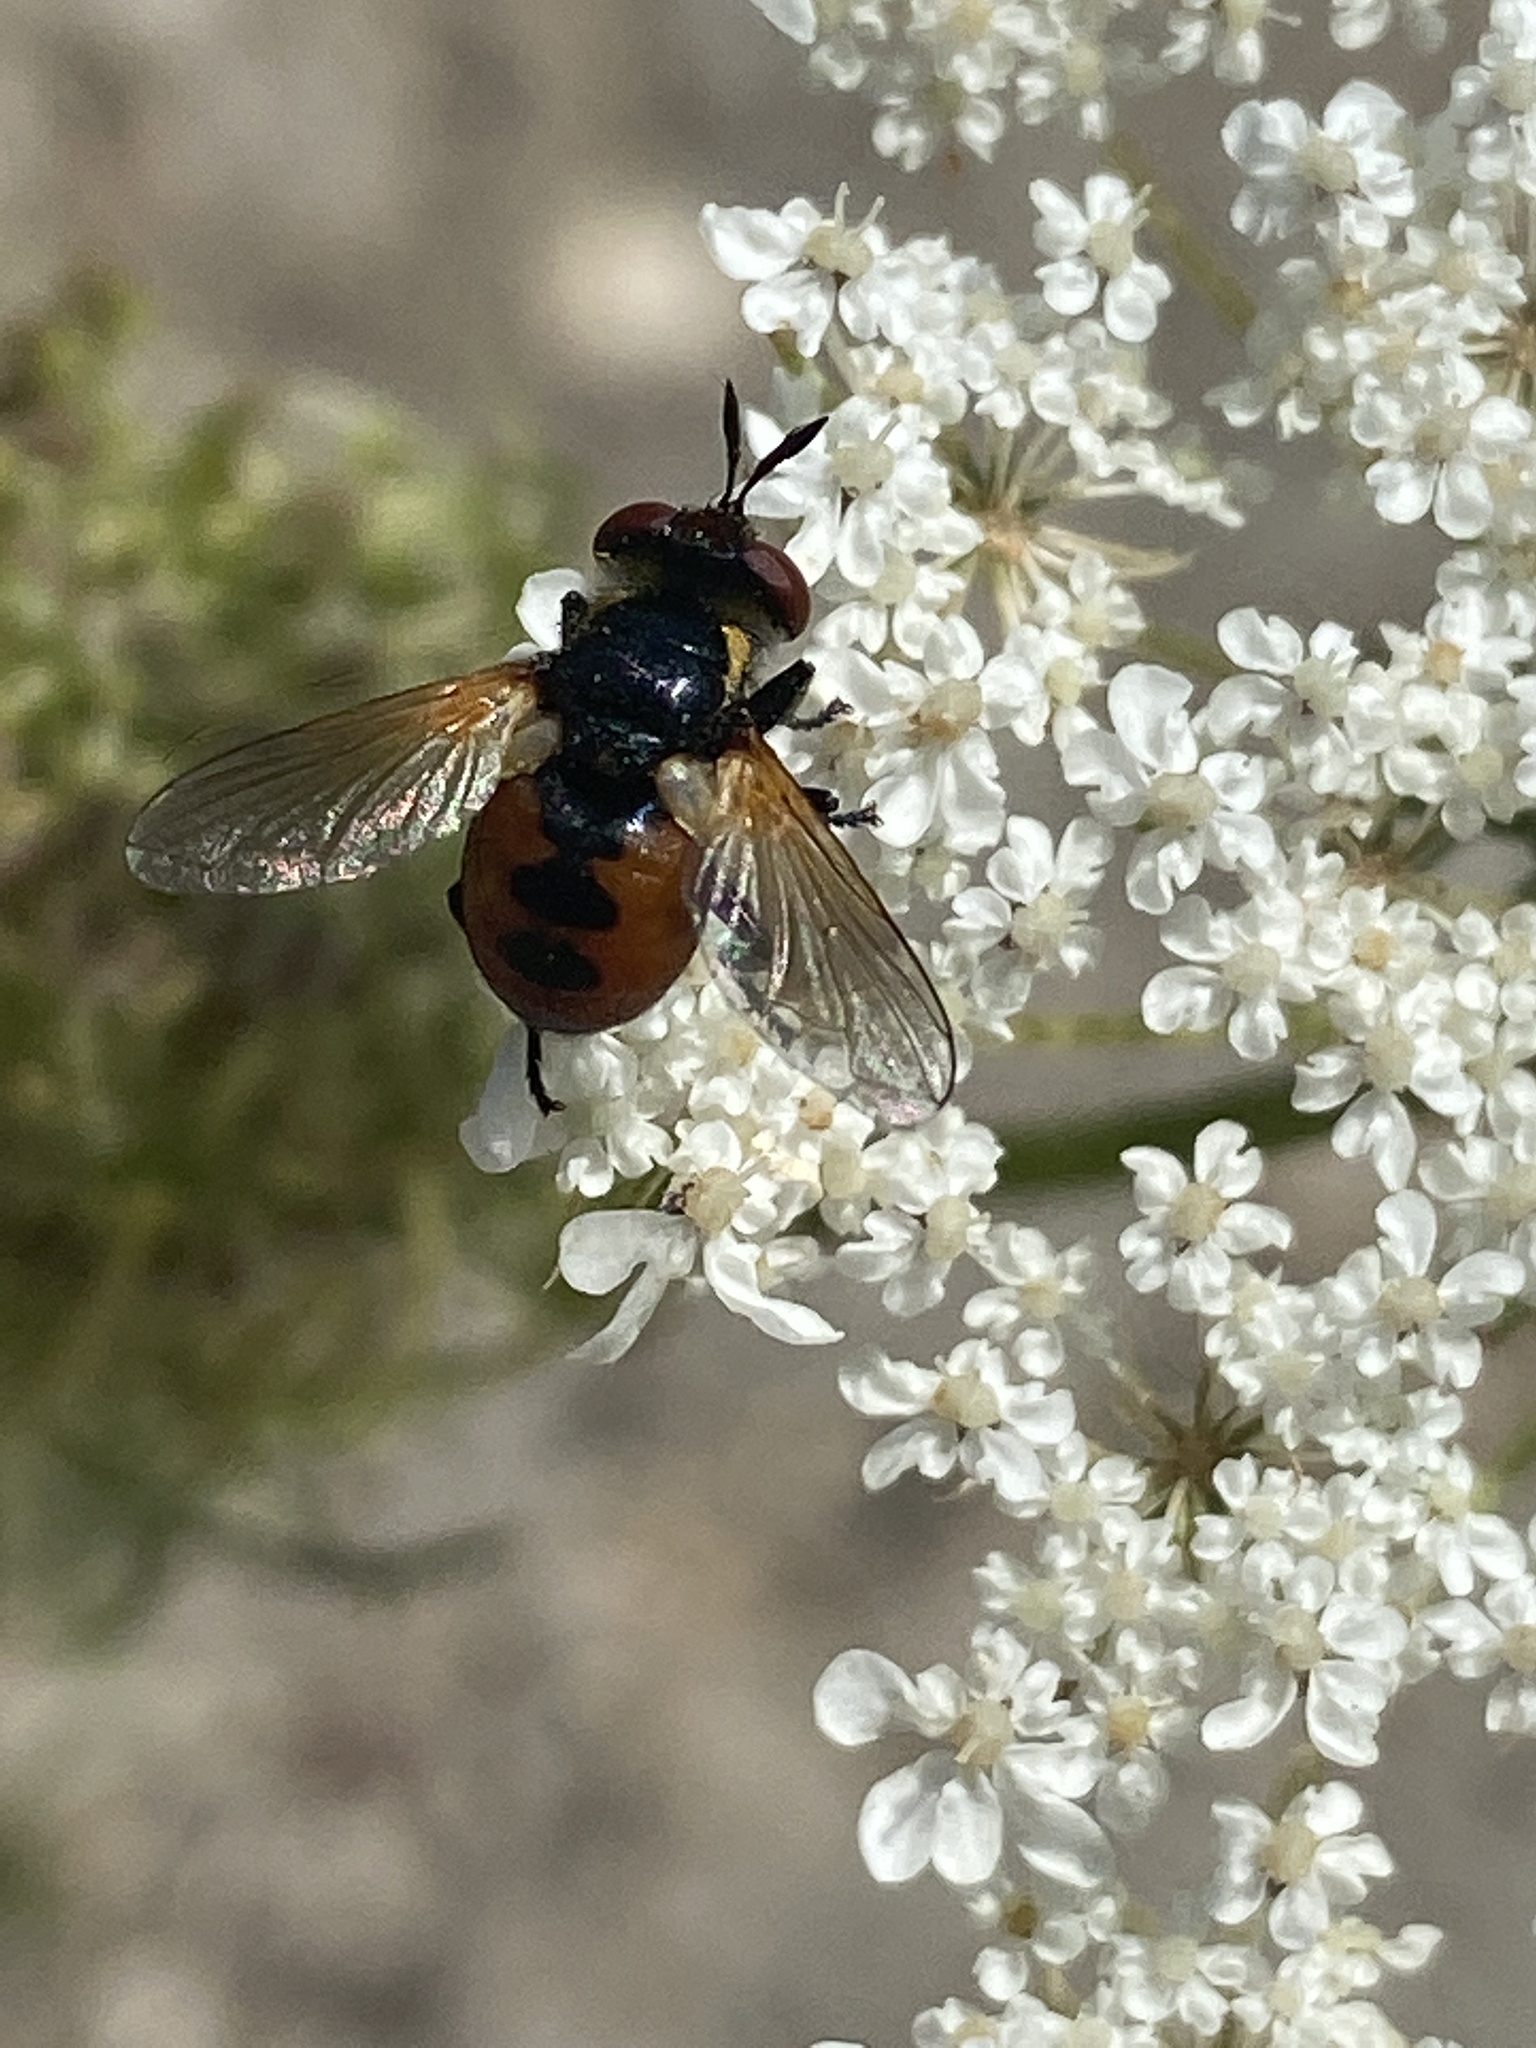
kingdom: Animalia
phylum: Arthropoda
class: Insecta
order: Diptera
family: Tachinidae
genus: Gymnosoma
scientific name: Gymnosoma rotundatum
